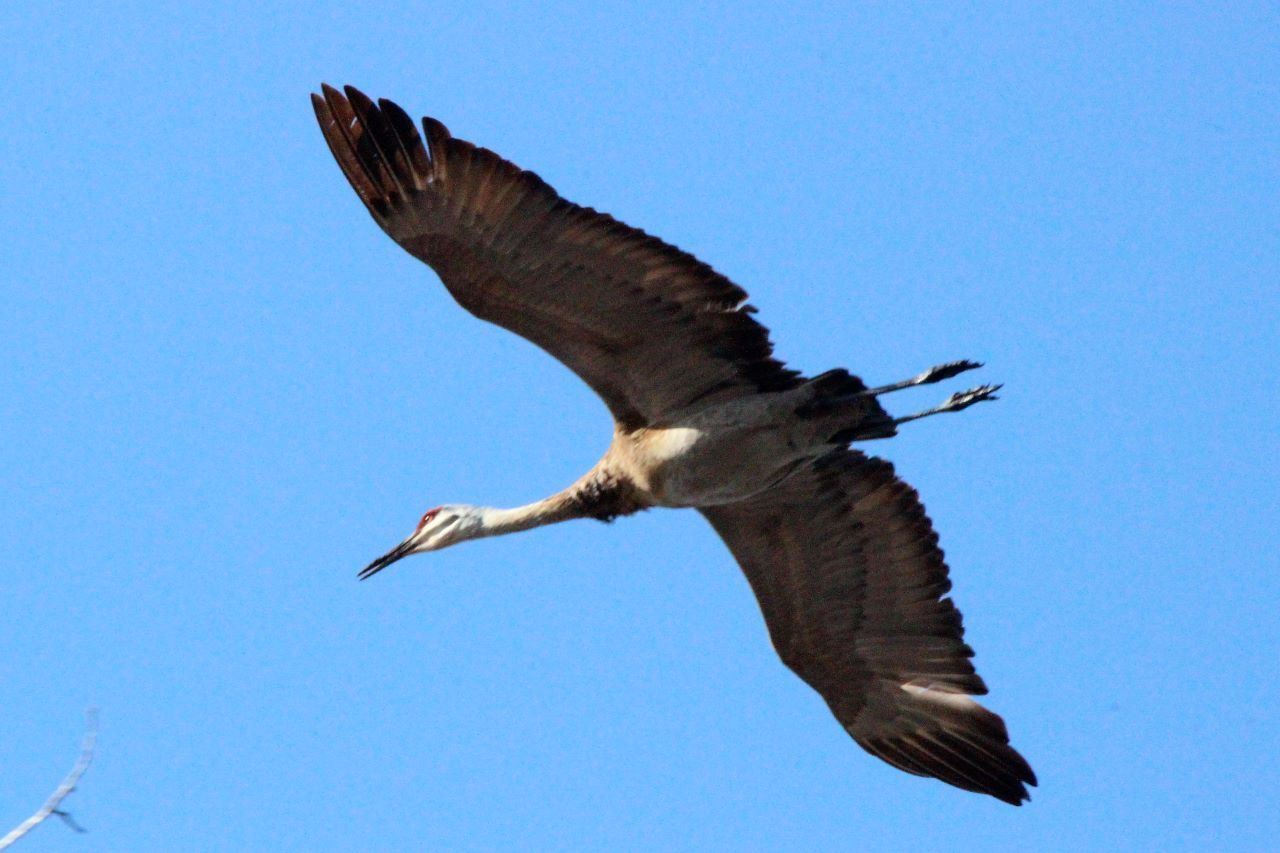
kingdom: Animalia
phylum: Chordata
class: Aves
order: Gruiformes
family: Gruidae
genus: Grus
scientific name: Grus canadensis
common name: Sandhill crane
